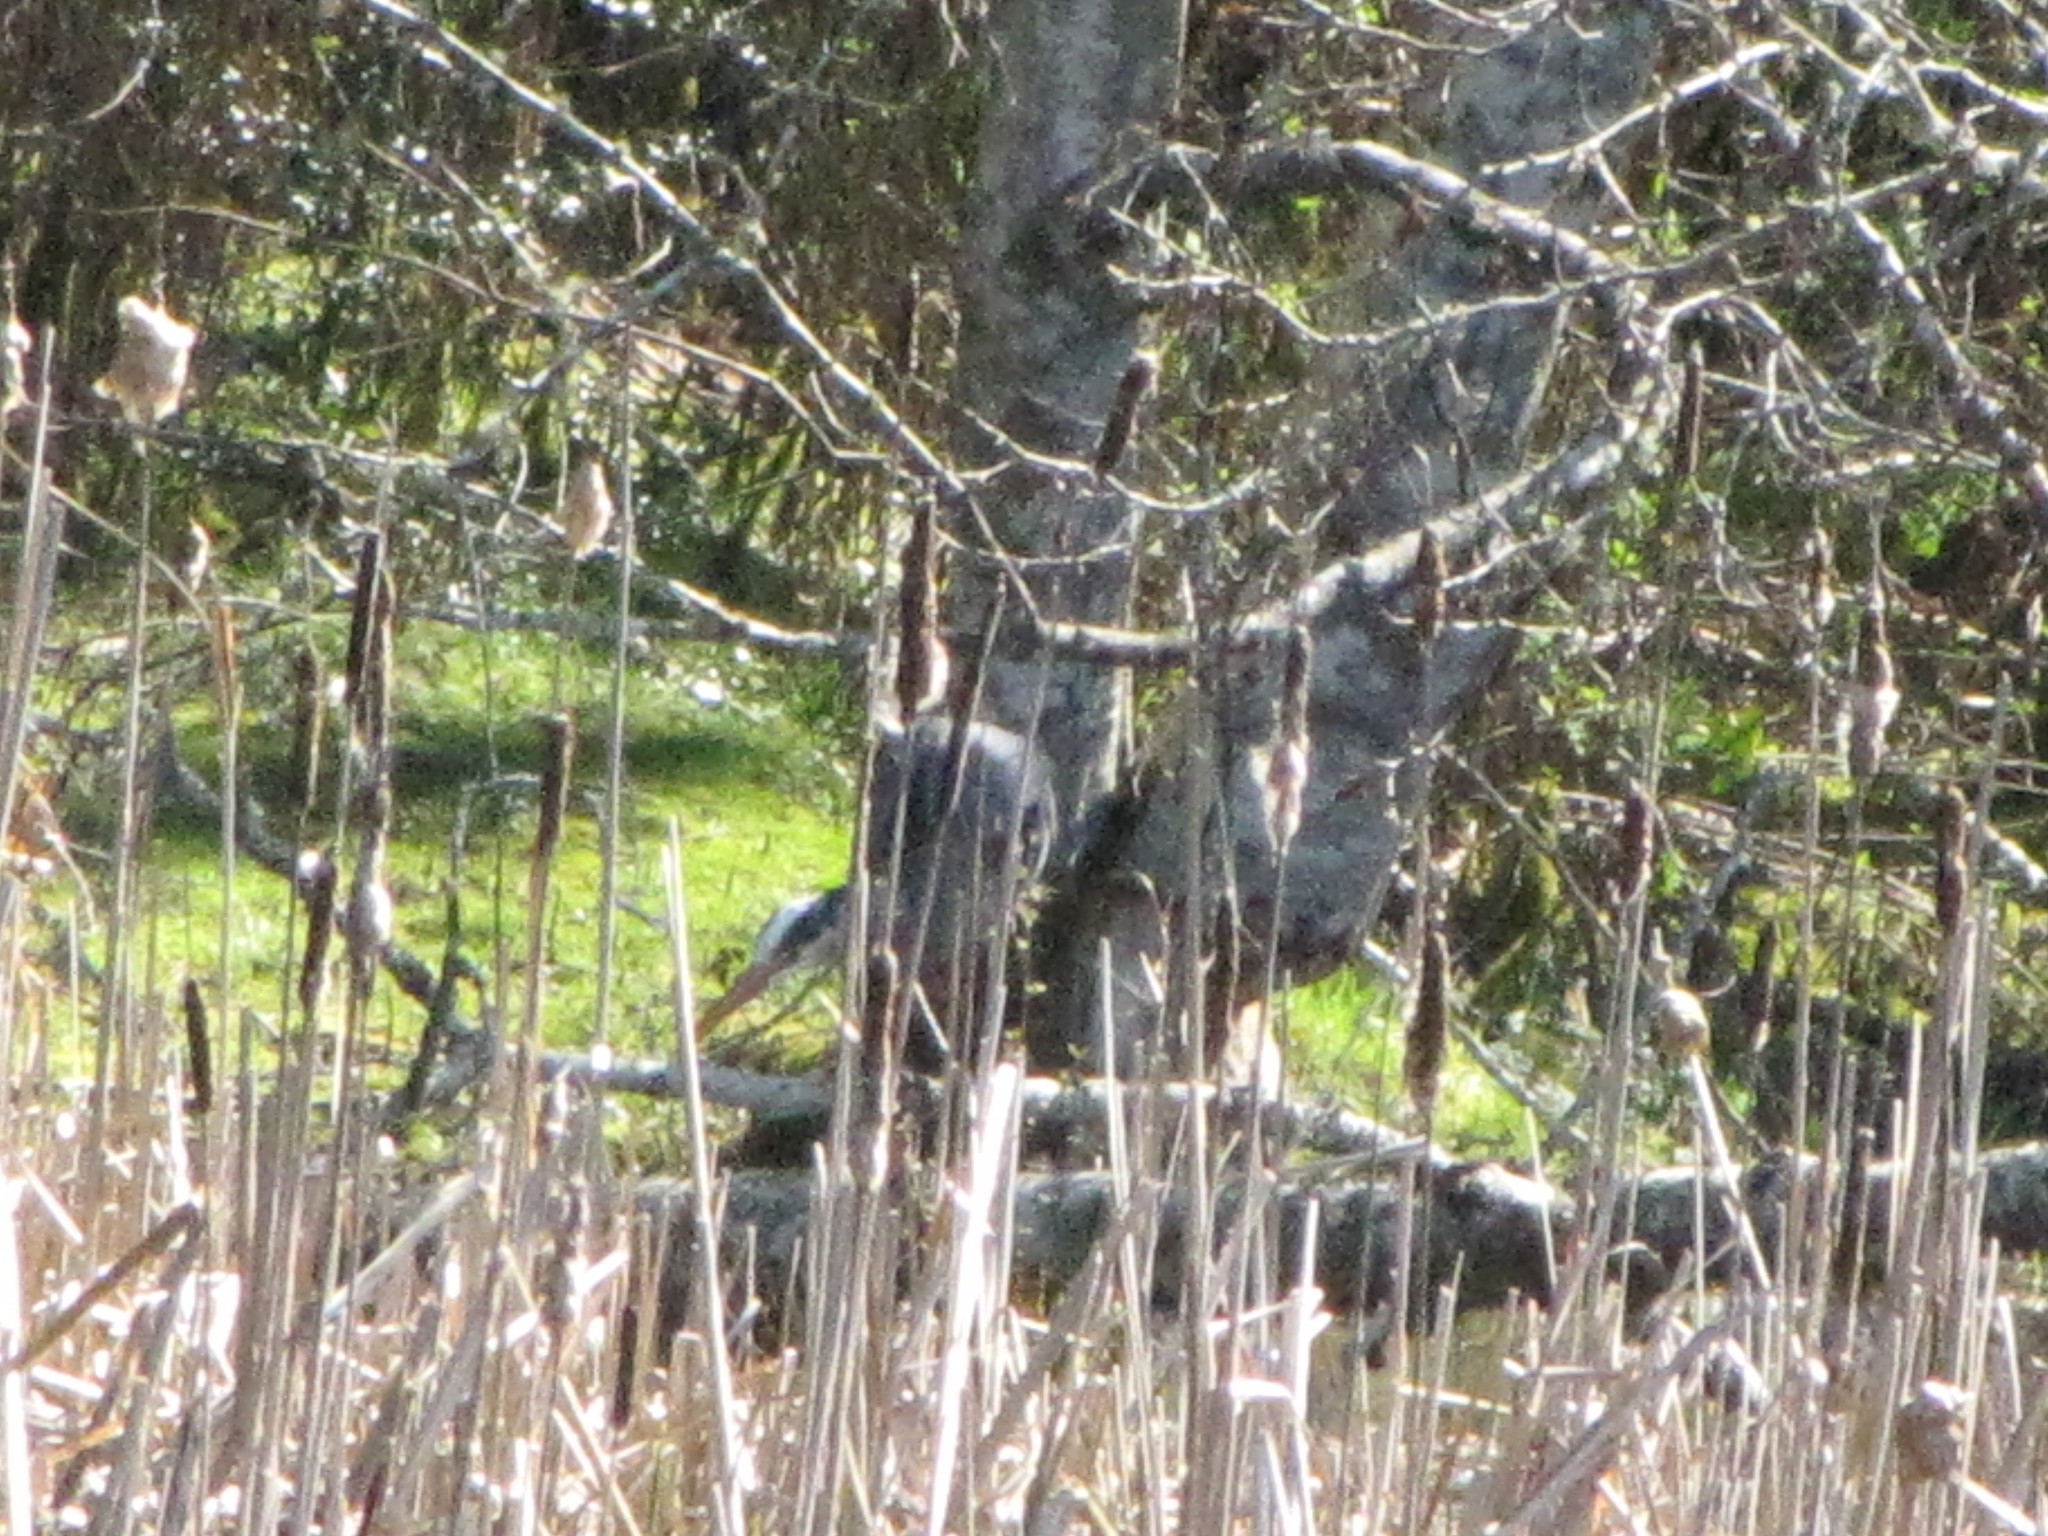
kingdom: Animalia
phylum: Chordata
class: Aves
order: Pelecaniformes
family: Ardeidae
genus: Ardea
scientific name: Ardea herodias
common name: Great blue heron
